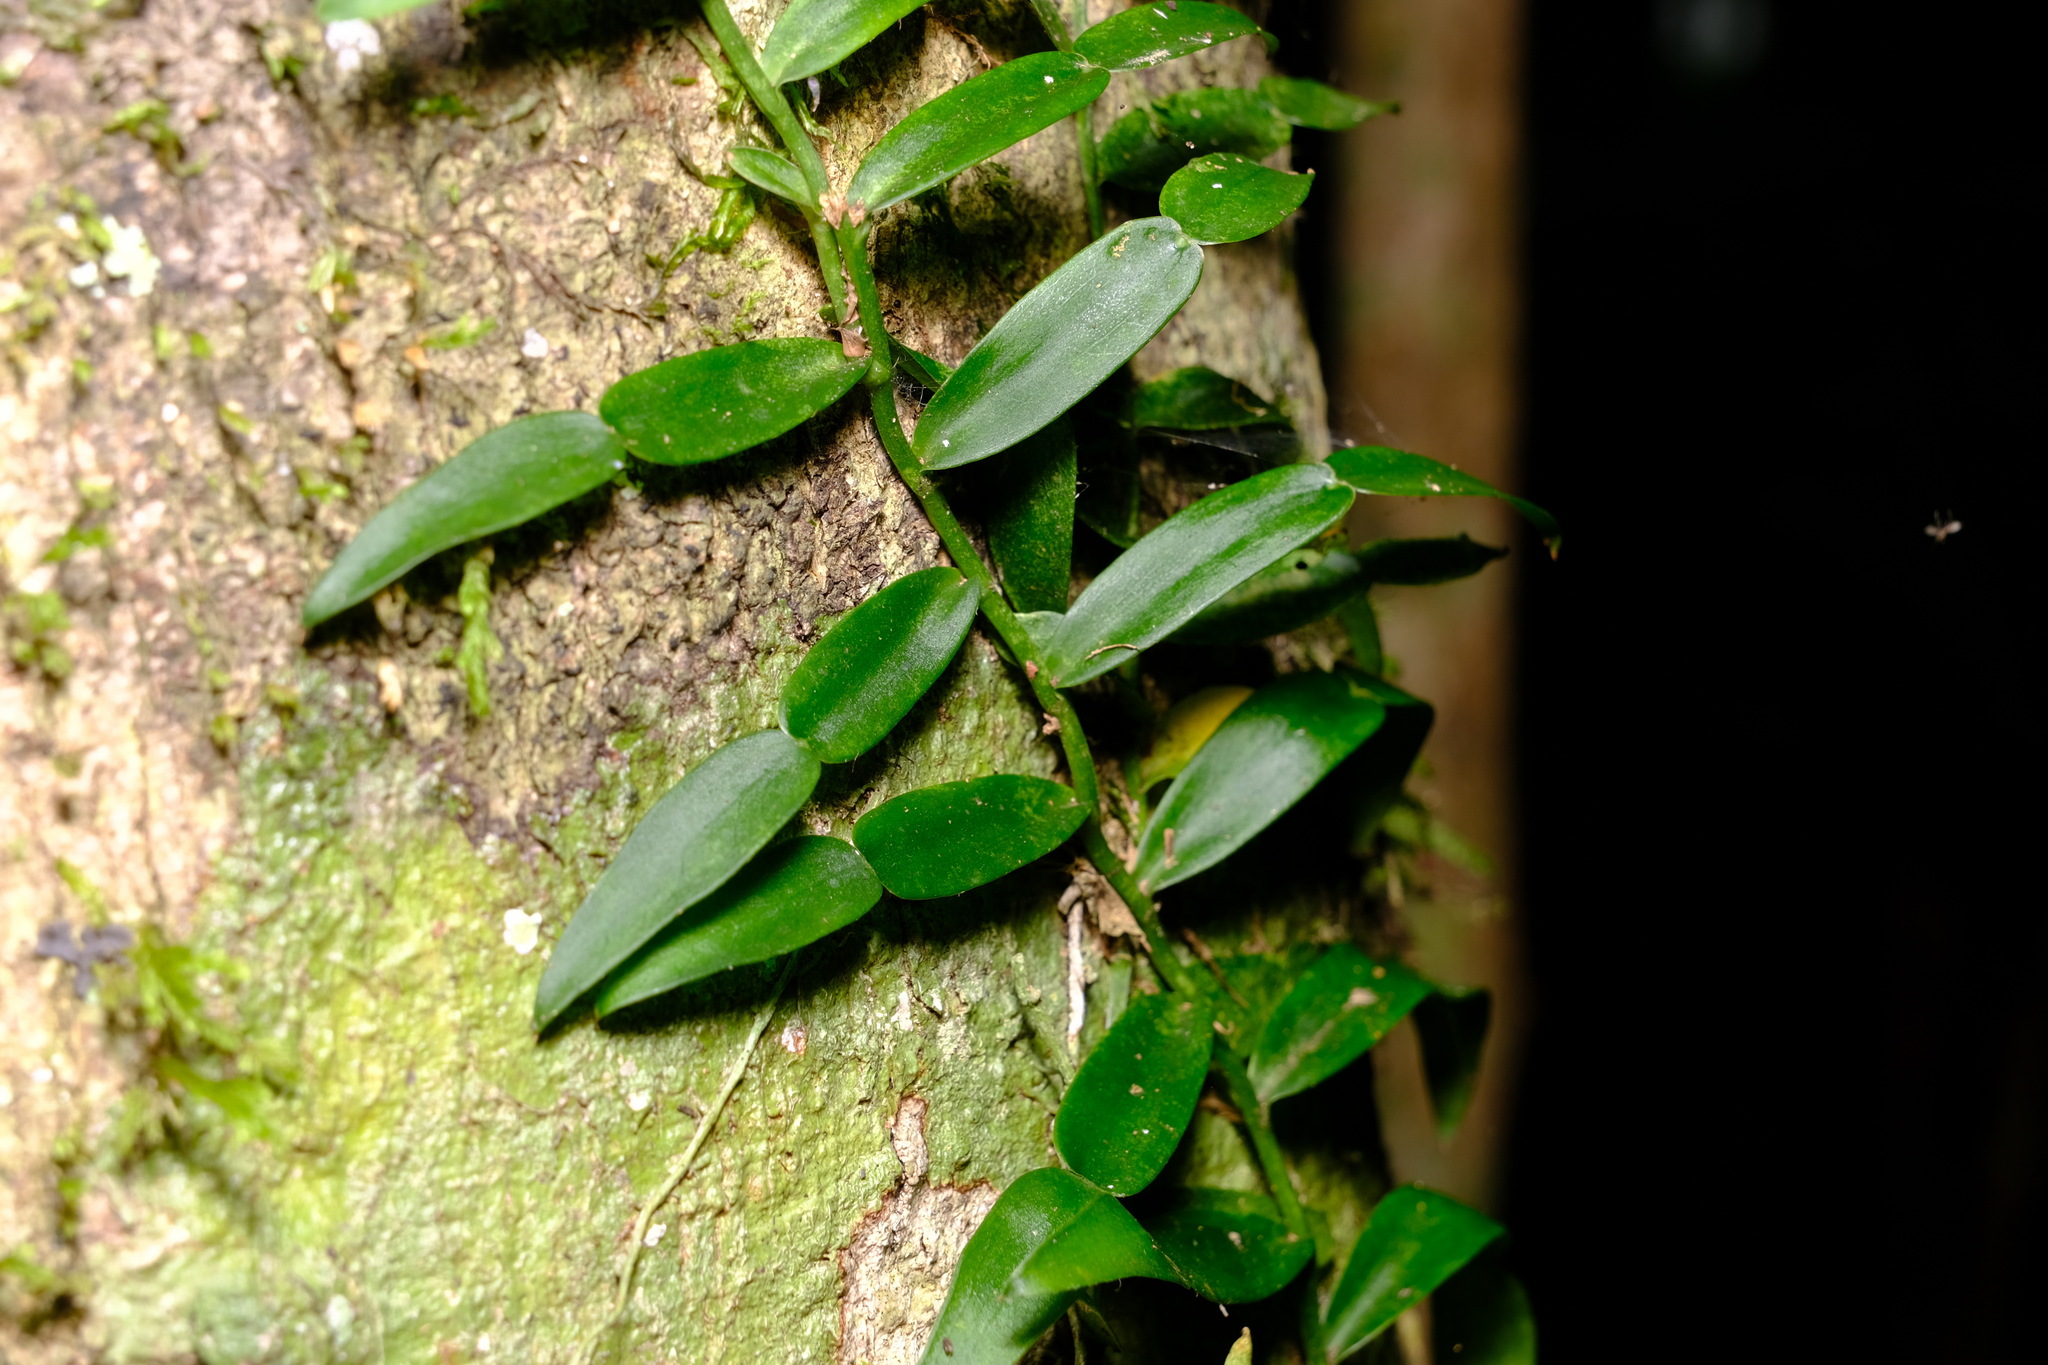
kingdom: Plantae
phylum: Tracheophyta
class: Liliopsida
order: Alismatales
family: Araceae
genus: Pothos
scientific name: Pothos longipes
